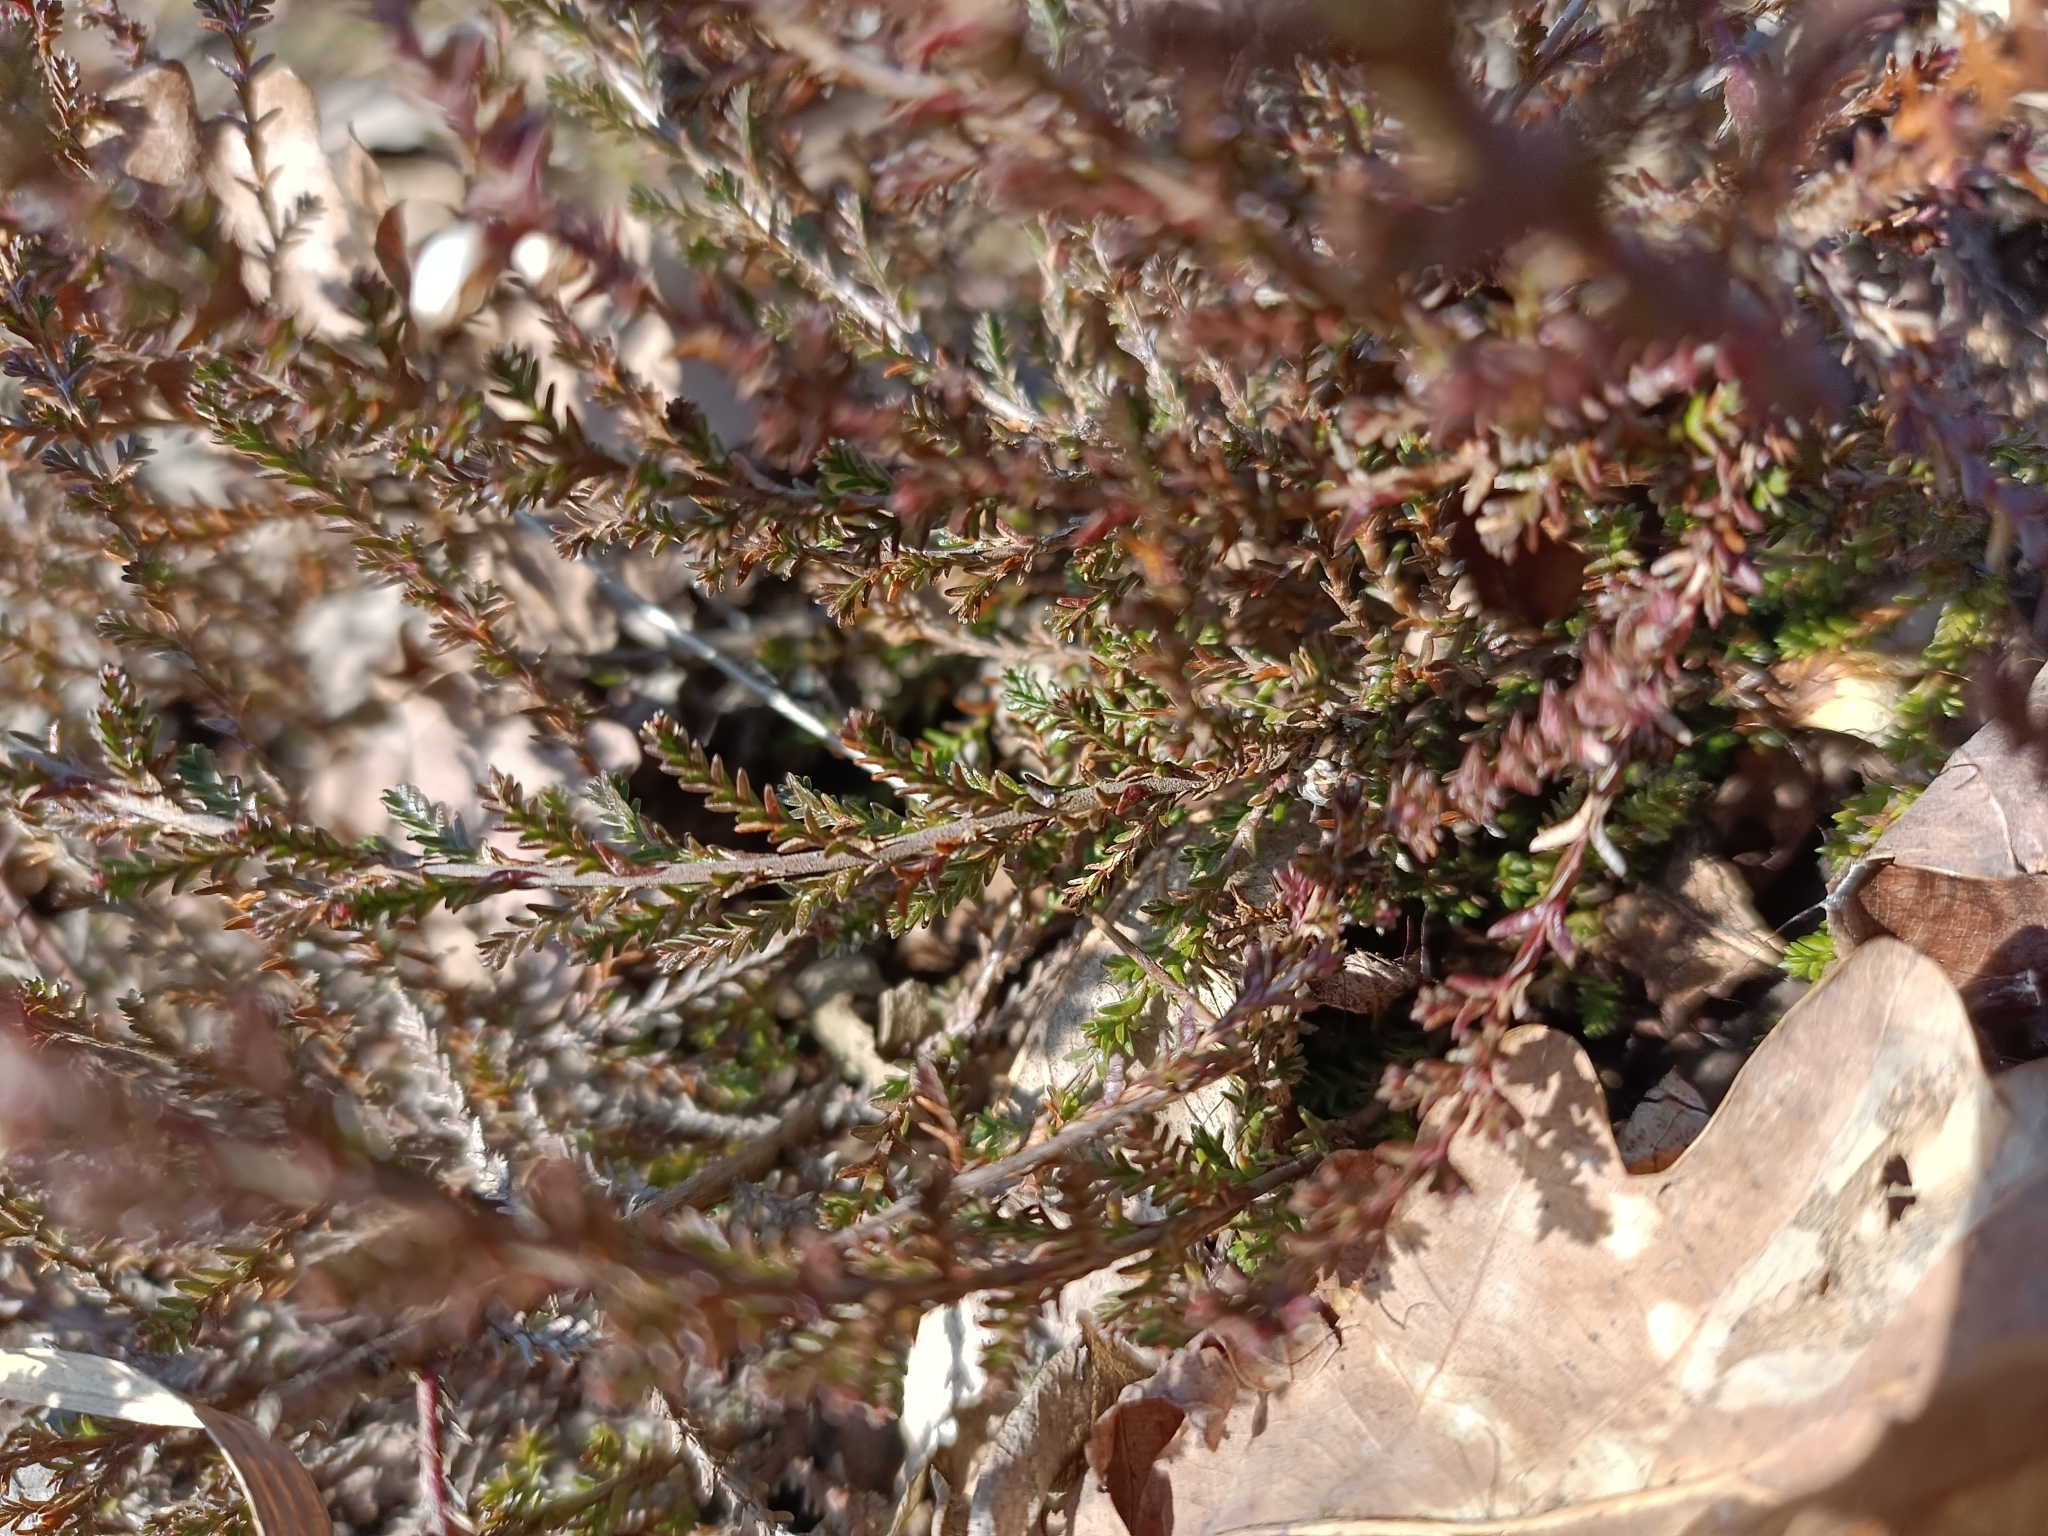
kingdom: Plantae
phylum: Tracheophyta
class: Magnoliopsida
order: Ericales
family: Ericaceae
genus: Calluna
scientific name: Calluna vulgaris
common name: Heather
